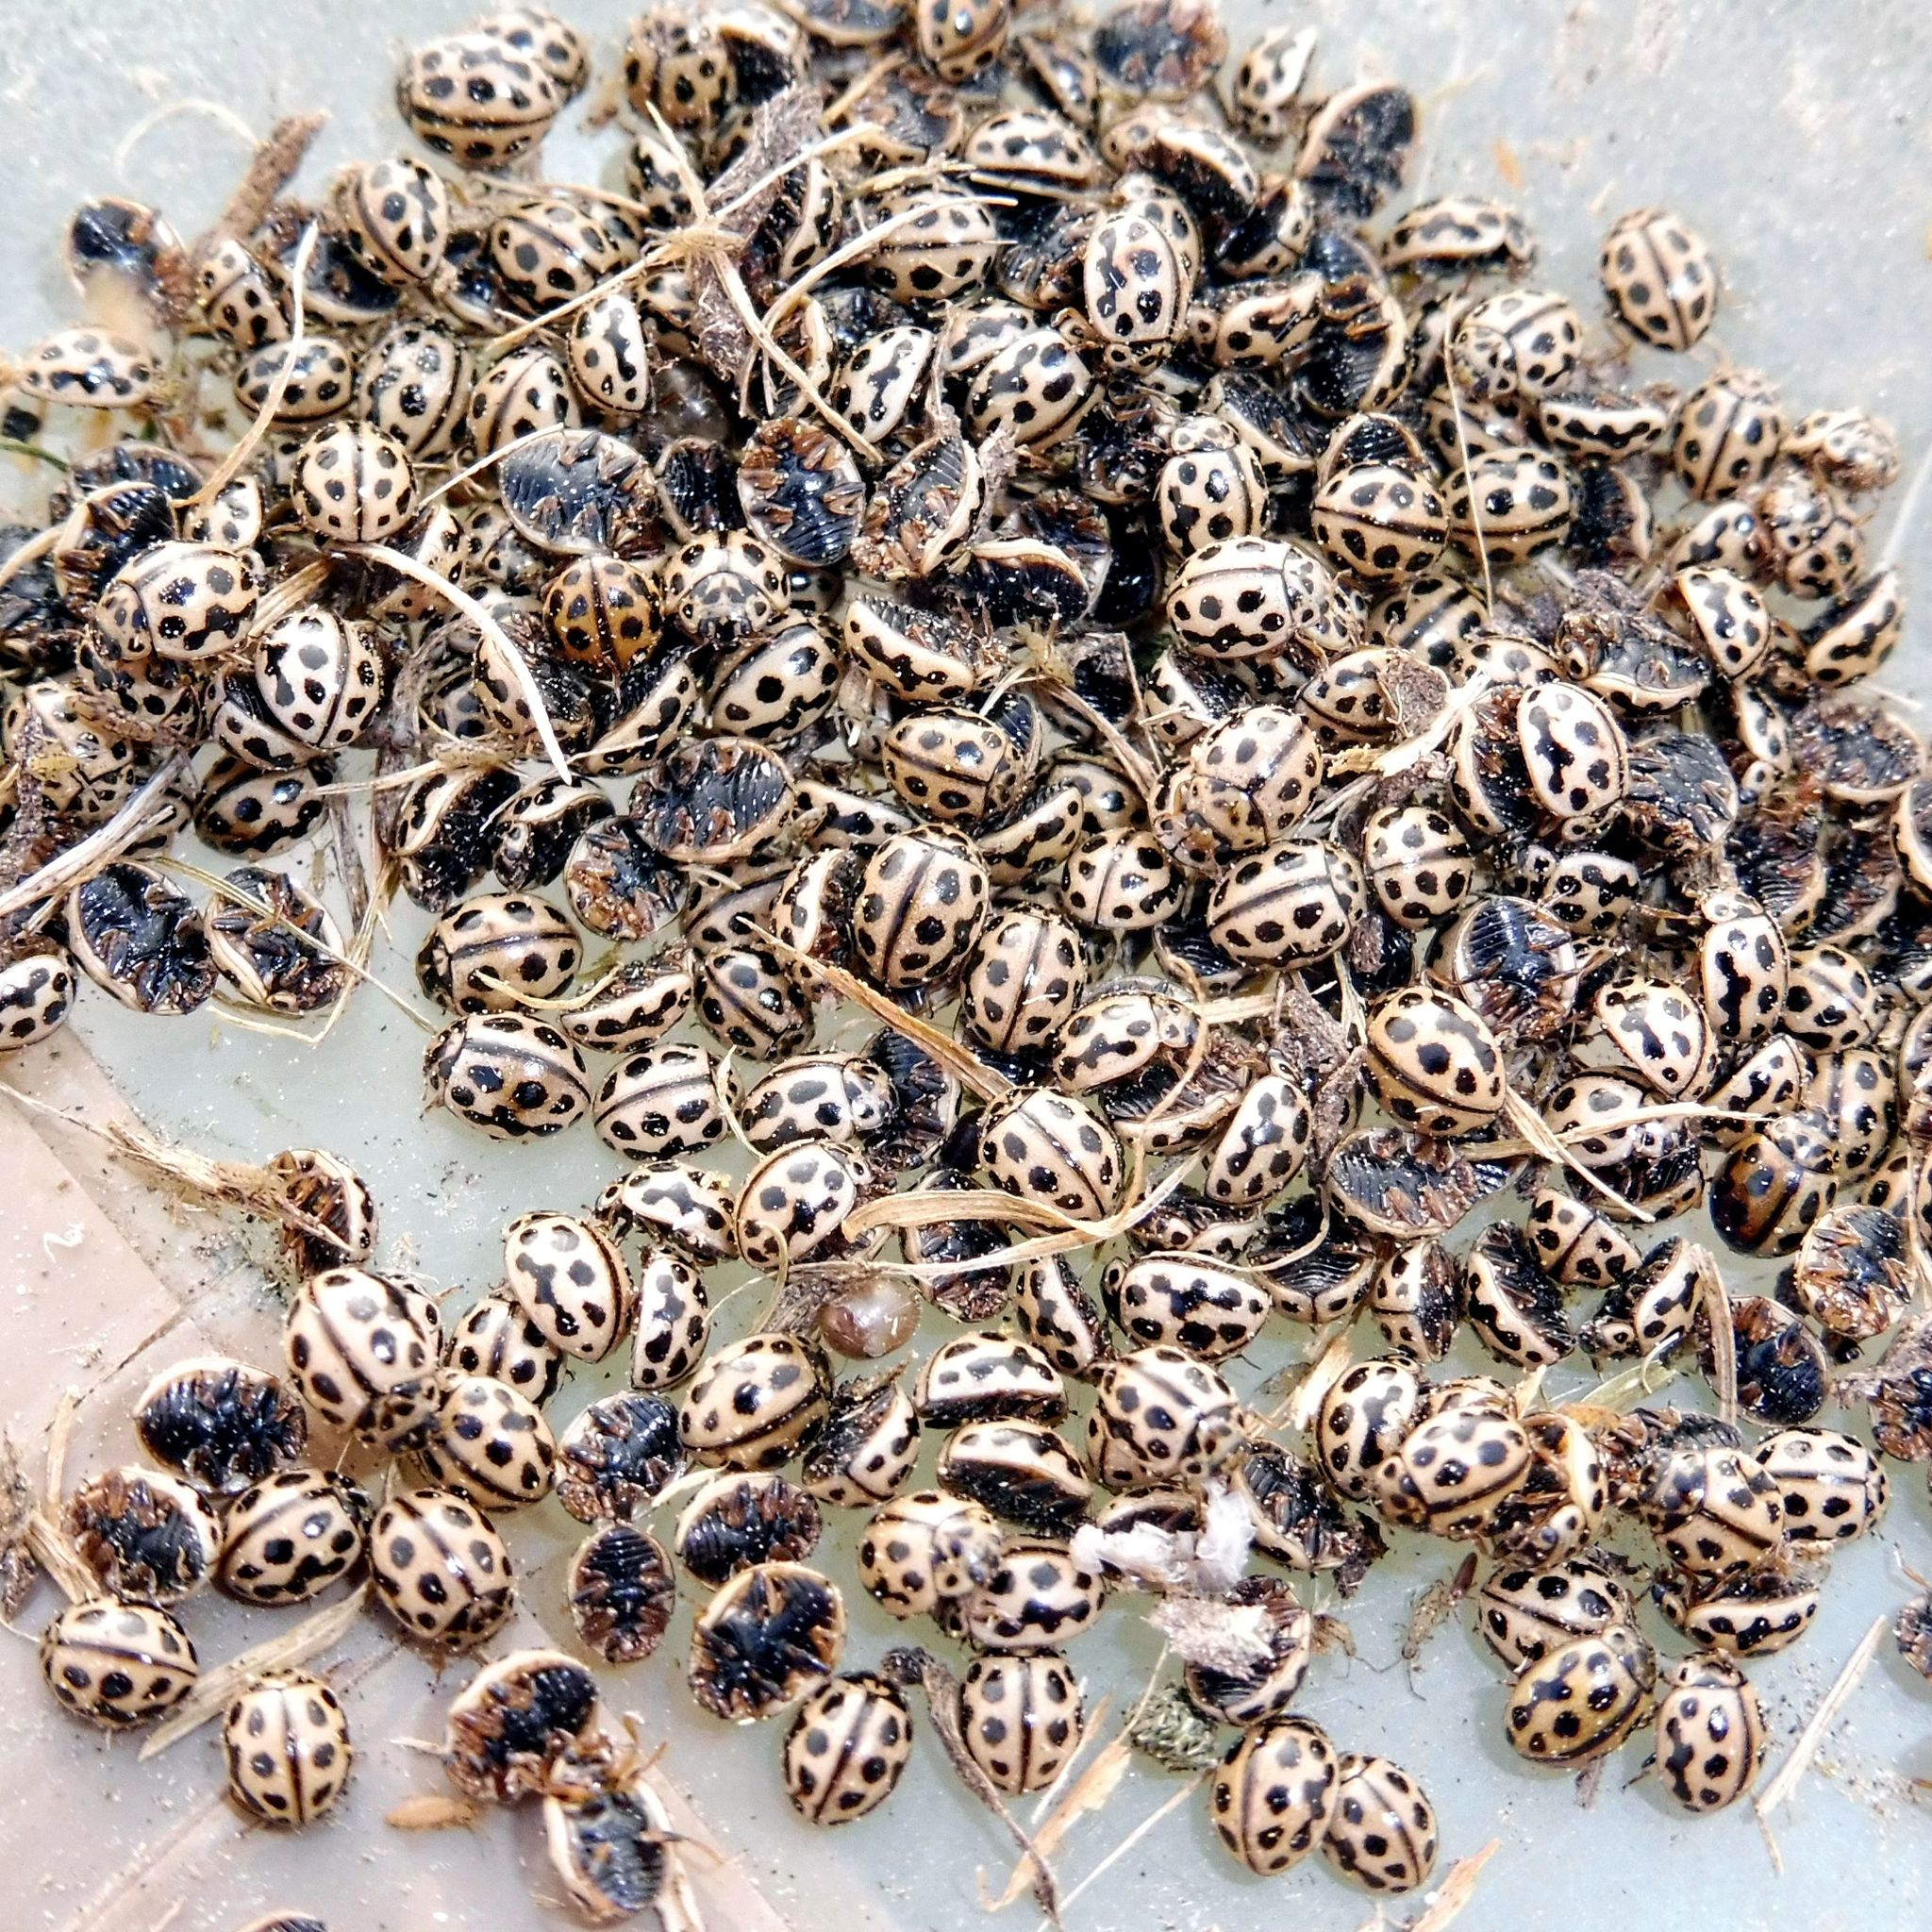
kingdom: Animalia
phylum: Arthropoda
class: Insecta
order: Coleoptera
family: Coccinellidae
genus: Tytthaspis
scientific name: Tytthaspis sedecimpunctata
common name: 16-spot ladybird
